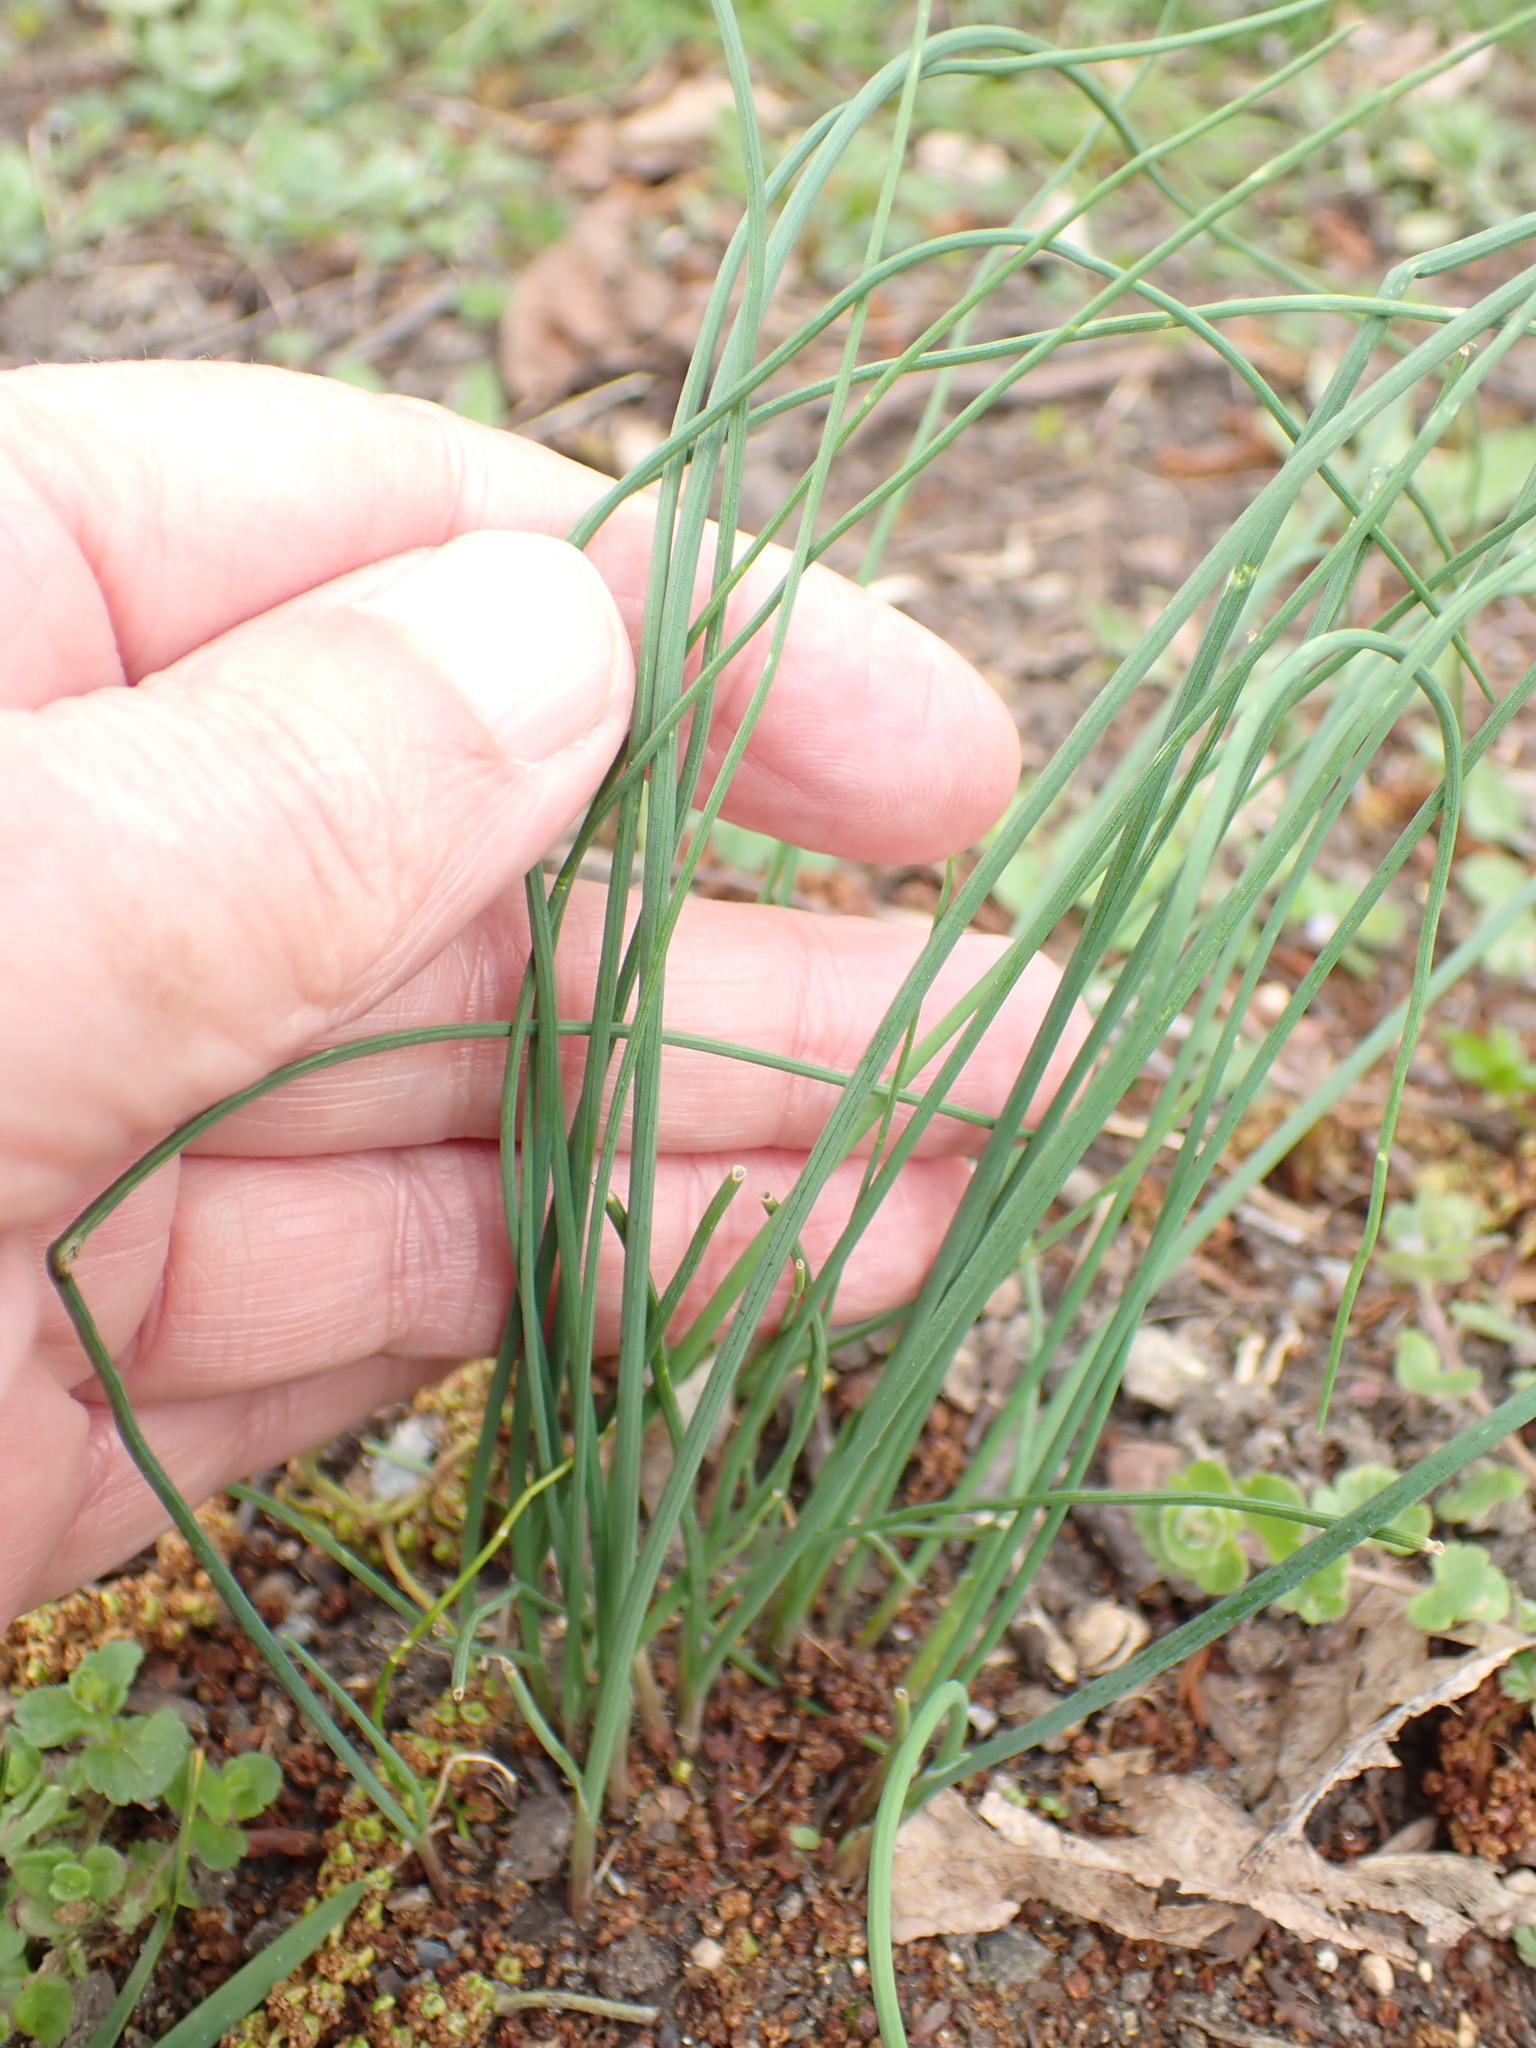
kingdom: Plantae
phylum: Tracheophyta
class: Liliopsida
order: Asparagales
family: Amaryllidaceae
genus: Allium
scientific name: Allium vineale
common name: Crow garlic
